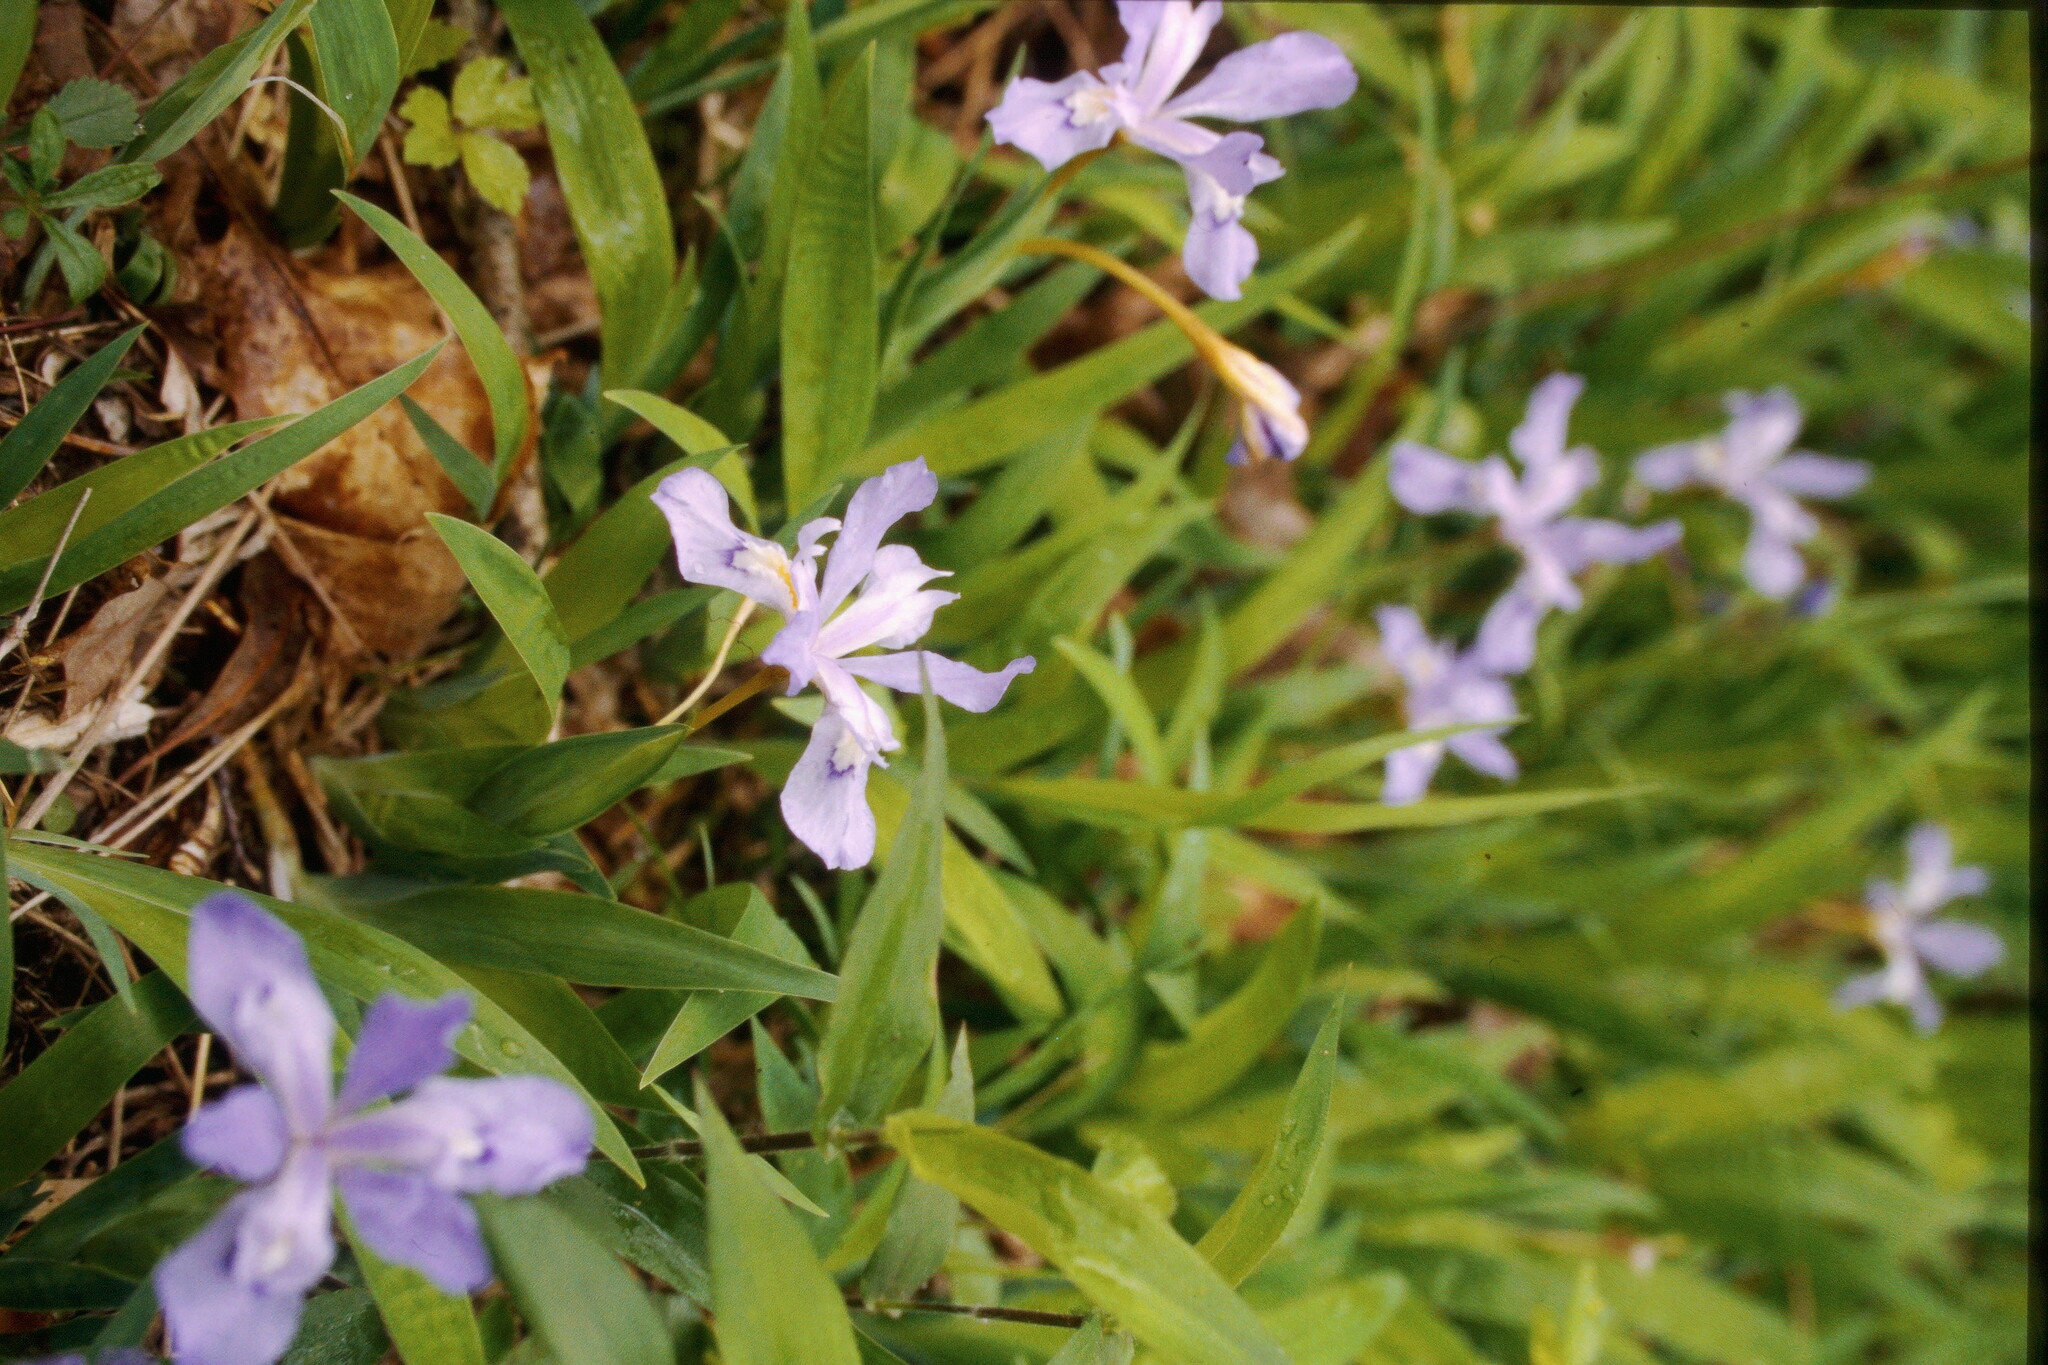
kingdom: Plantae
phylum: Tracheophyta
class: Liliopsida
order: Asparagales
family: Iridaceae
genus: Iris
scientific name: Iris cristata
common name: Crested iris
